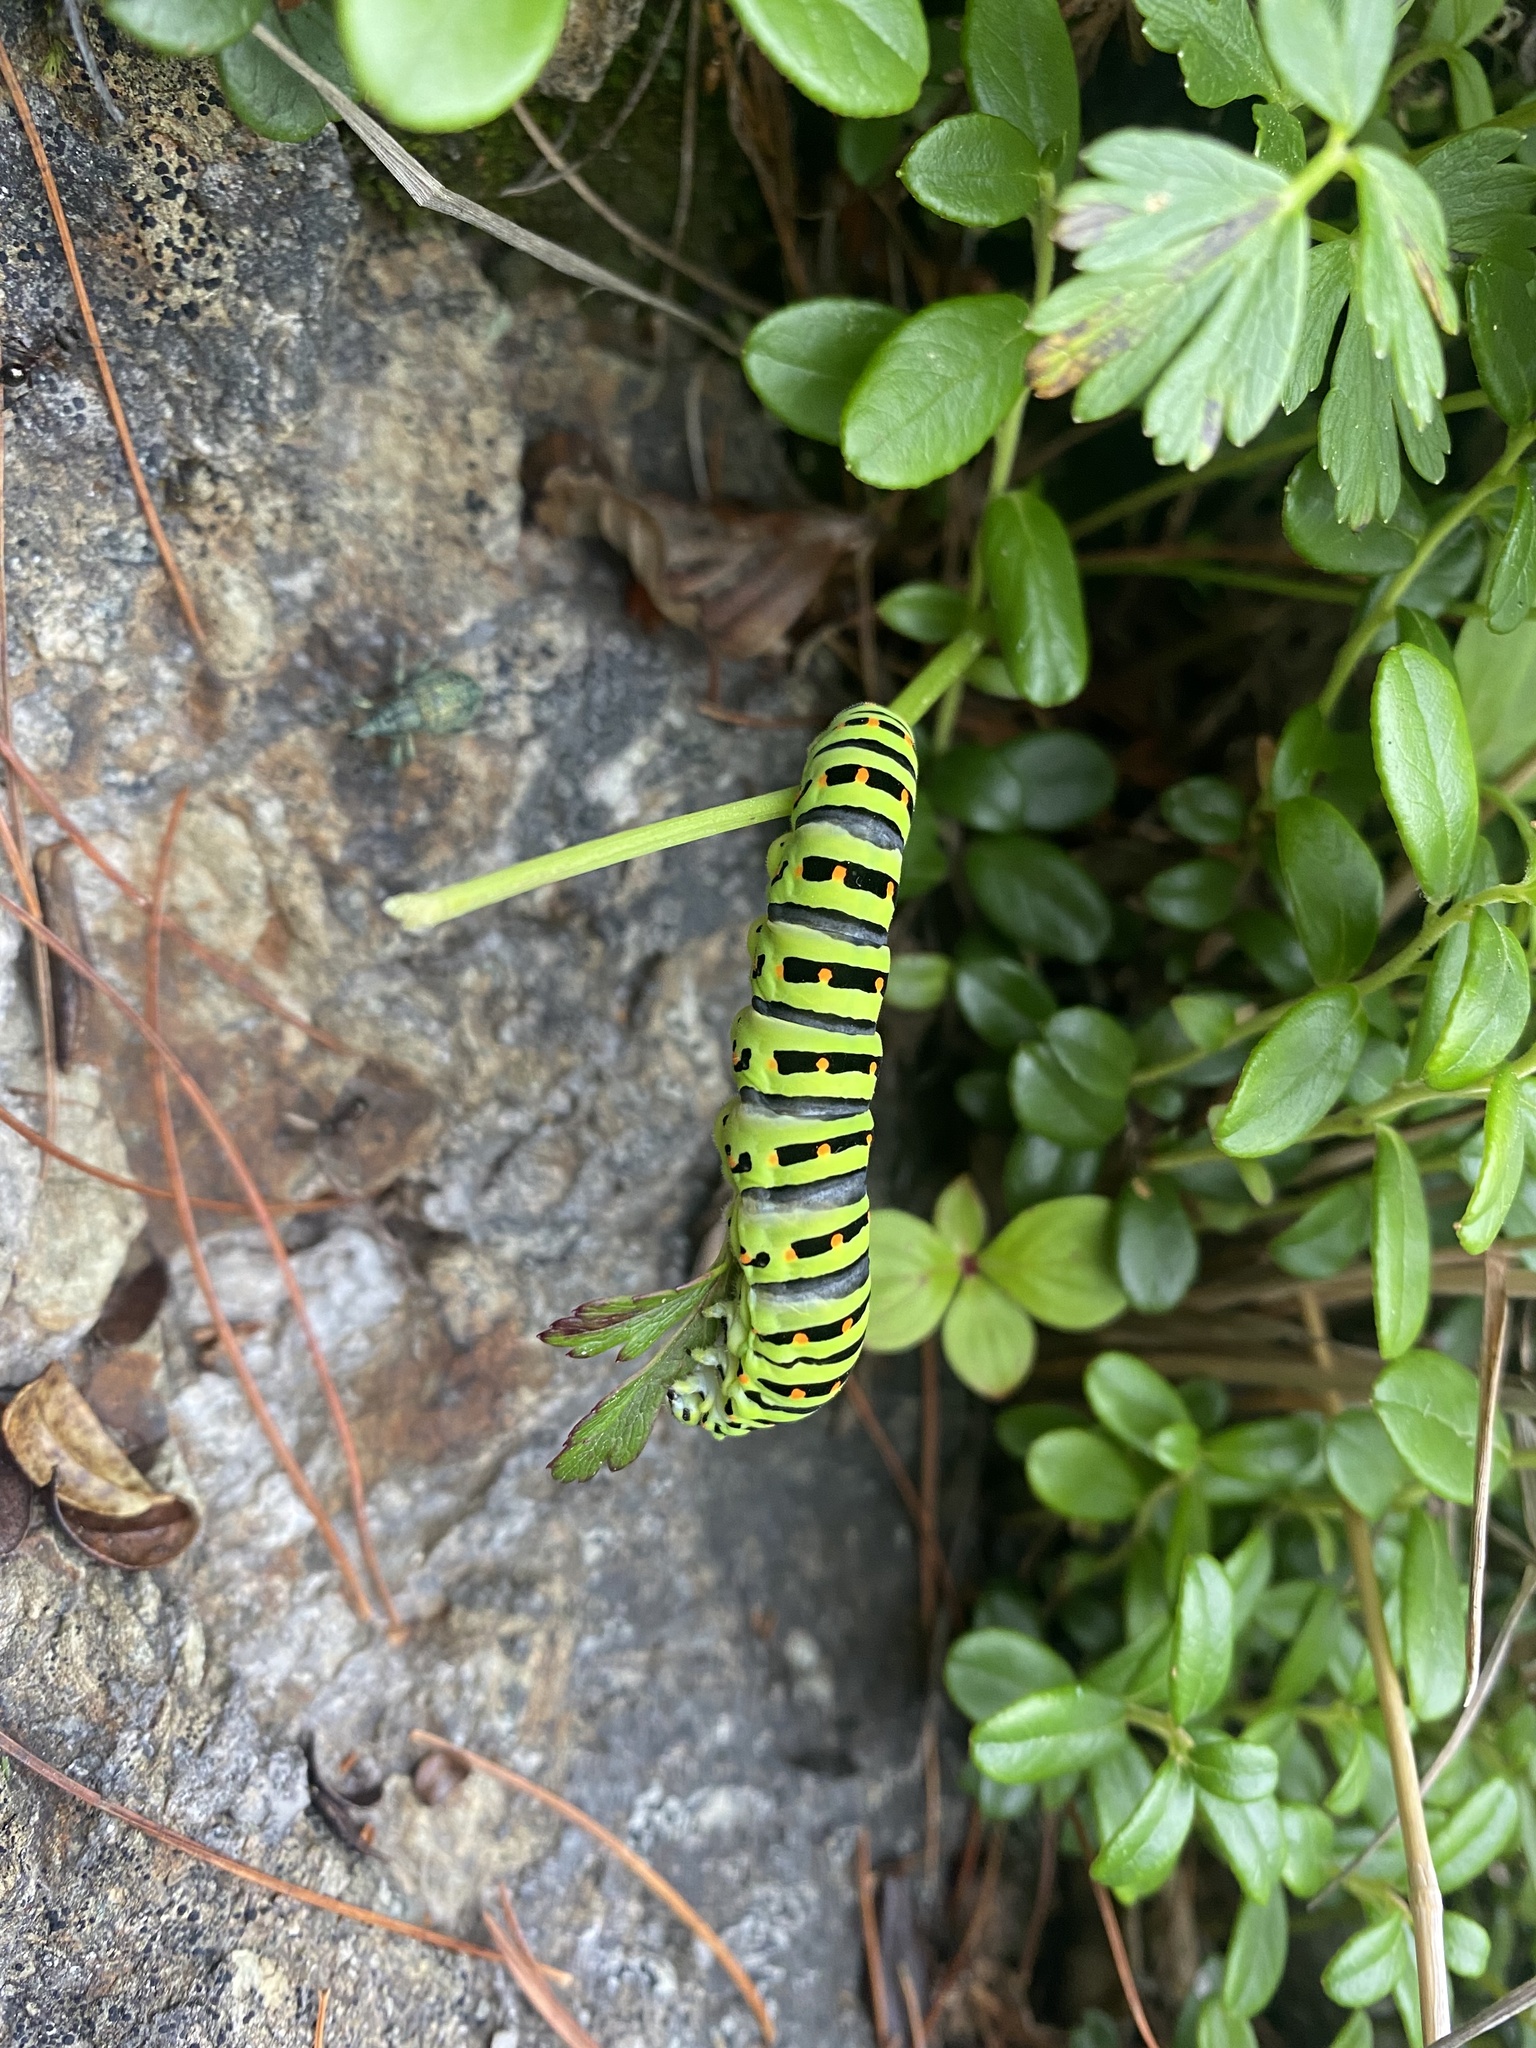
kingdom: Animalia
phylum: Arthropoda
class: Insecta
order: Lepidoptera
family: Papilionidae
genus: Papilio
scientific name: Papilio machaon
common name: Swallowtail
